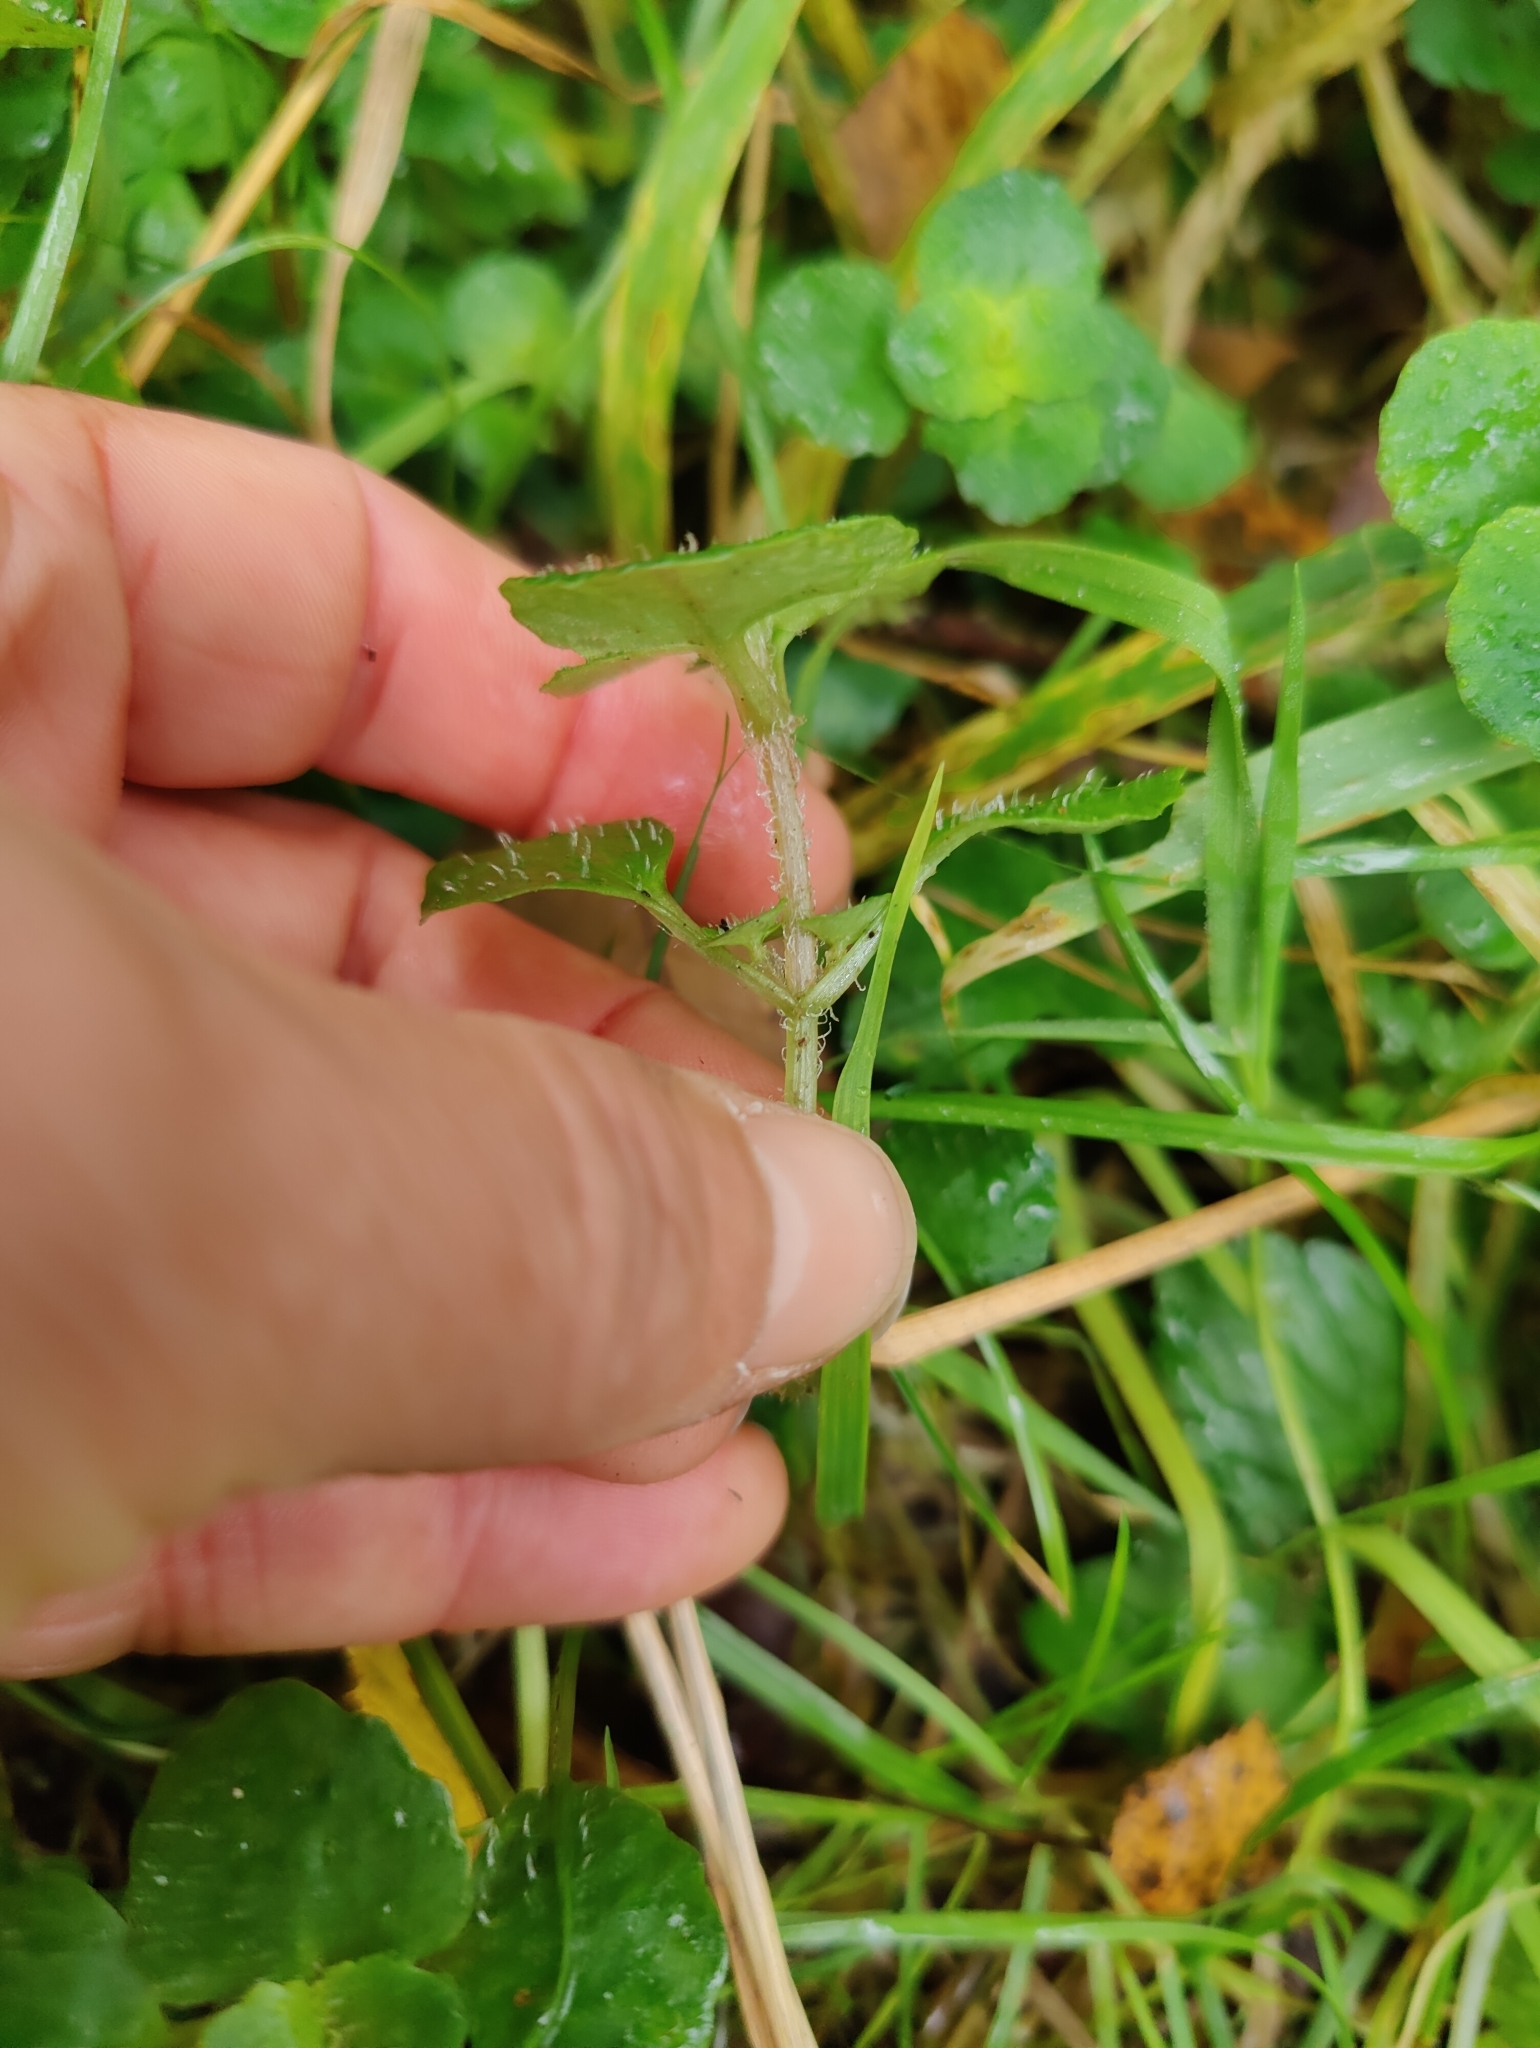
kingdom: Plantae
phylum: Tracheophyta
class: Magnoliopsida
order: Saxifragales
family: Saxifragaceae
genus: Chrysosplenium
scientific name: Chrysosplenium oppositifolium
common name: Opposite-leaved golden-saxifrage
